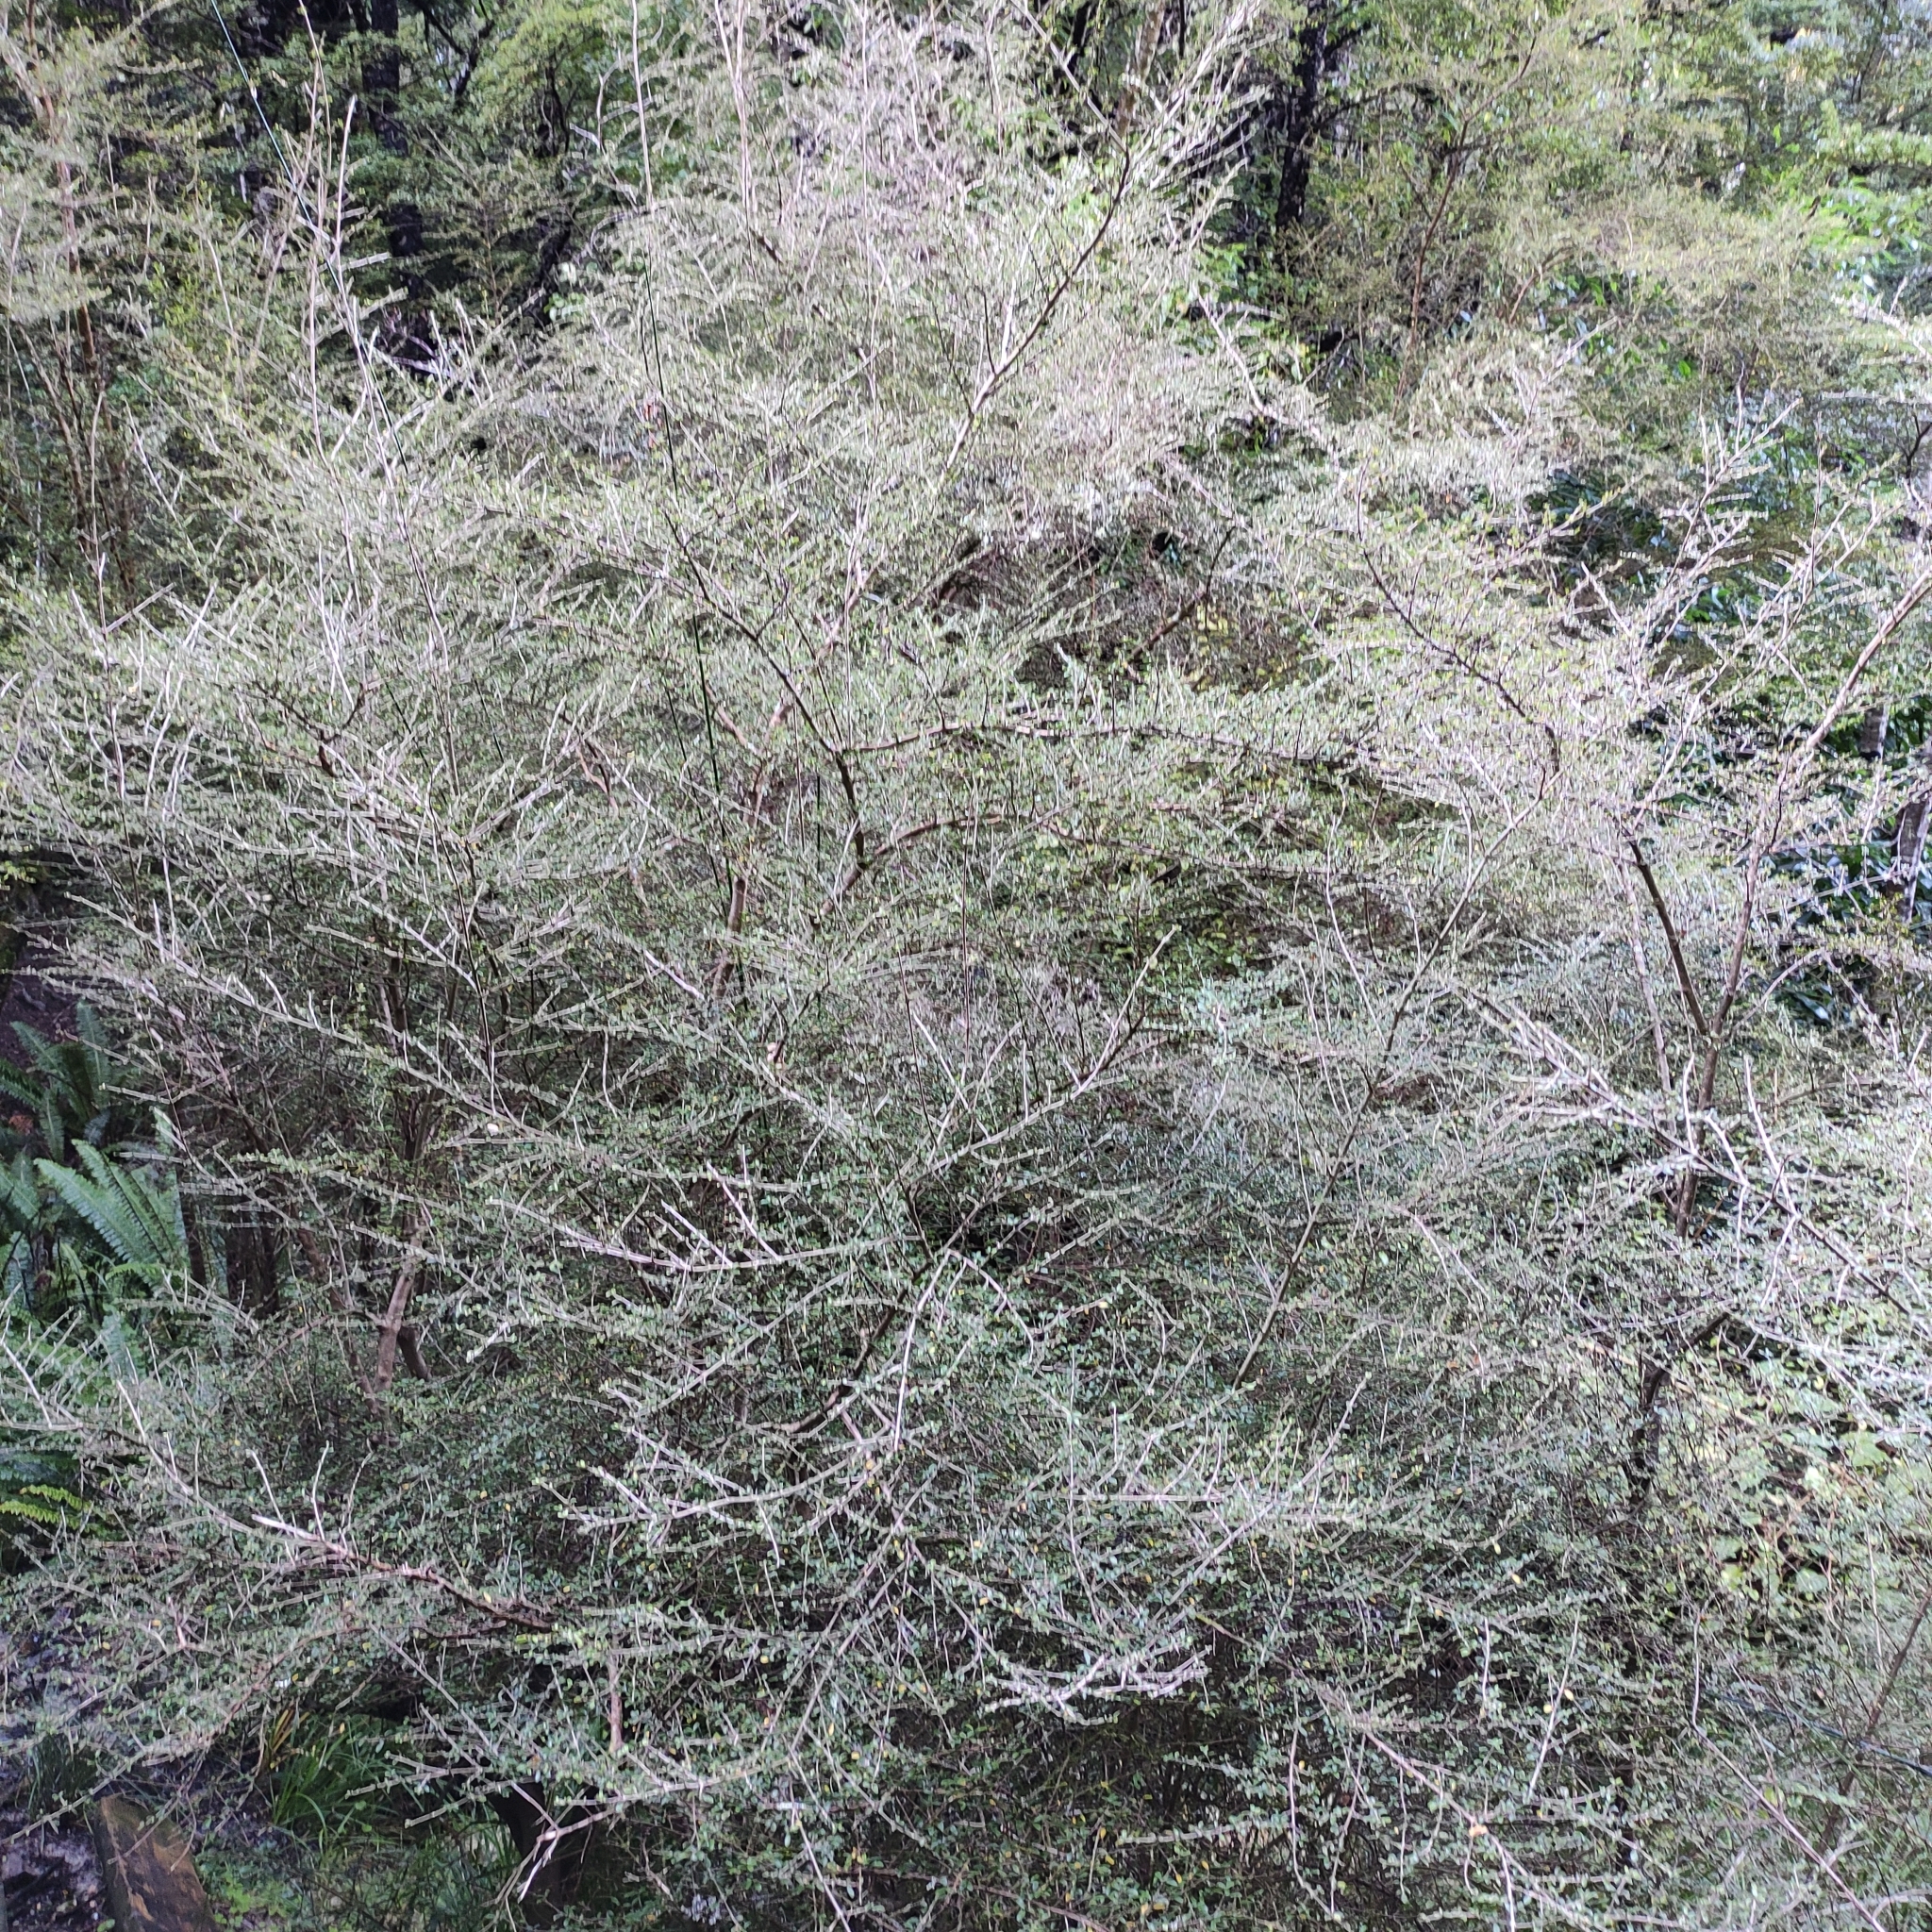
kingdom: Plantae
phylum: Tracheophyta
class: Magnoliopsida
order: Gentianales
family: Rubiaceae
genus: Coprosma
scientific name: Coprosma dumosa
